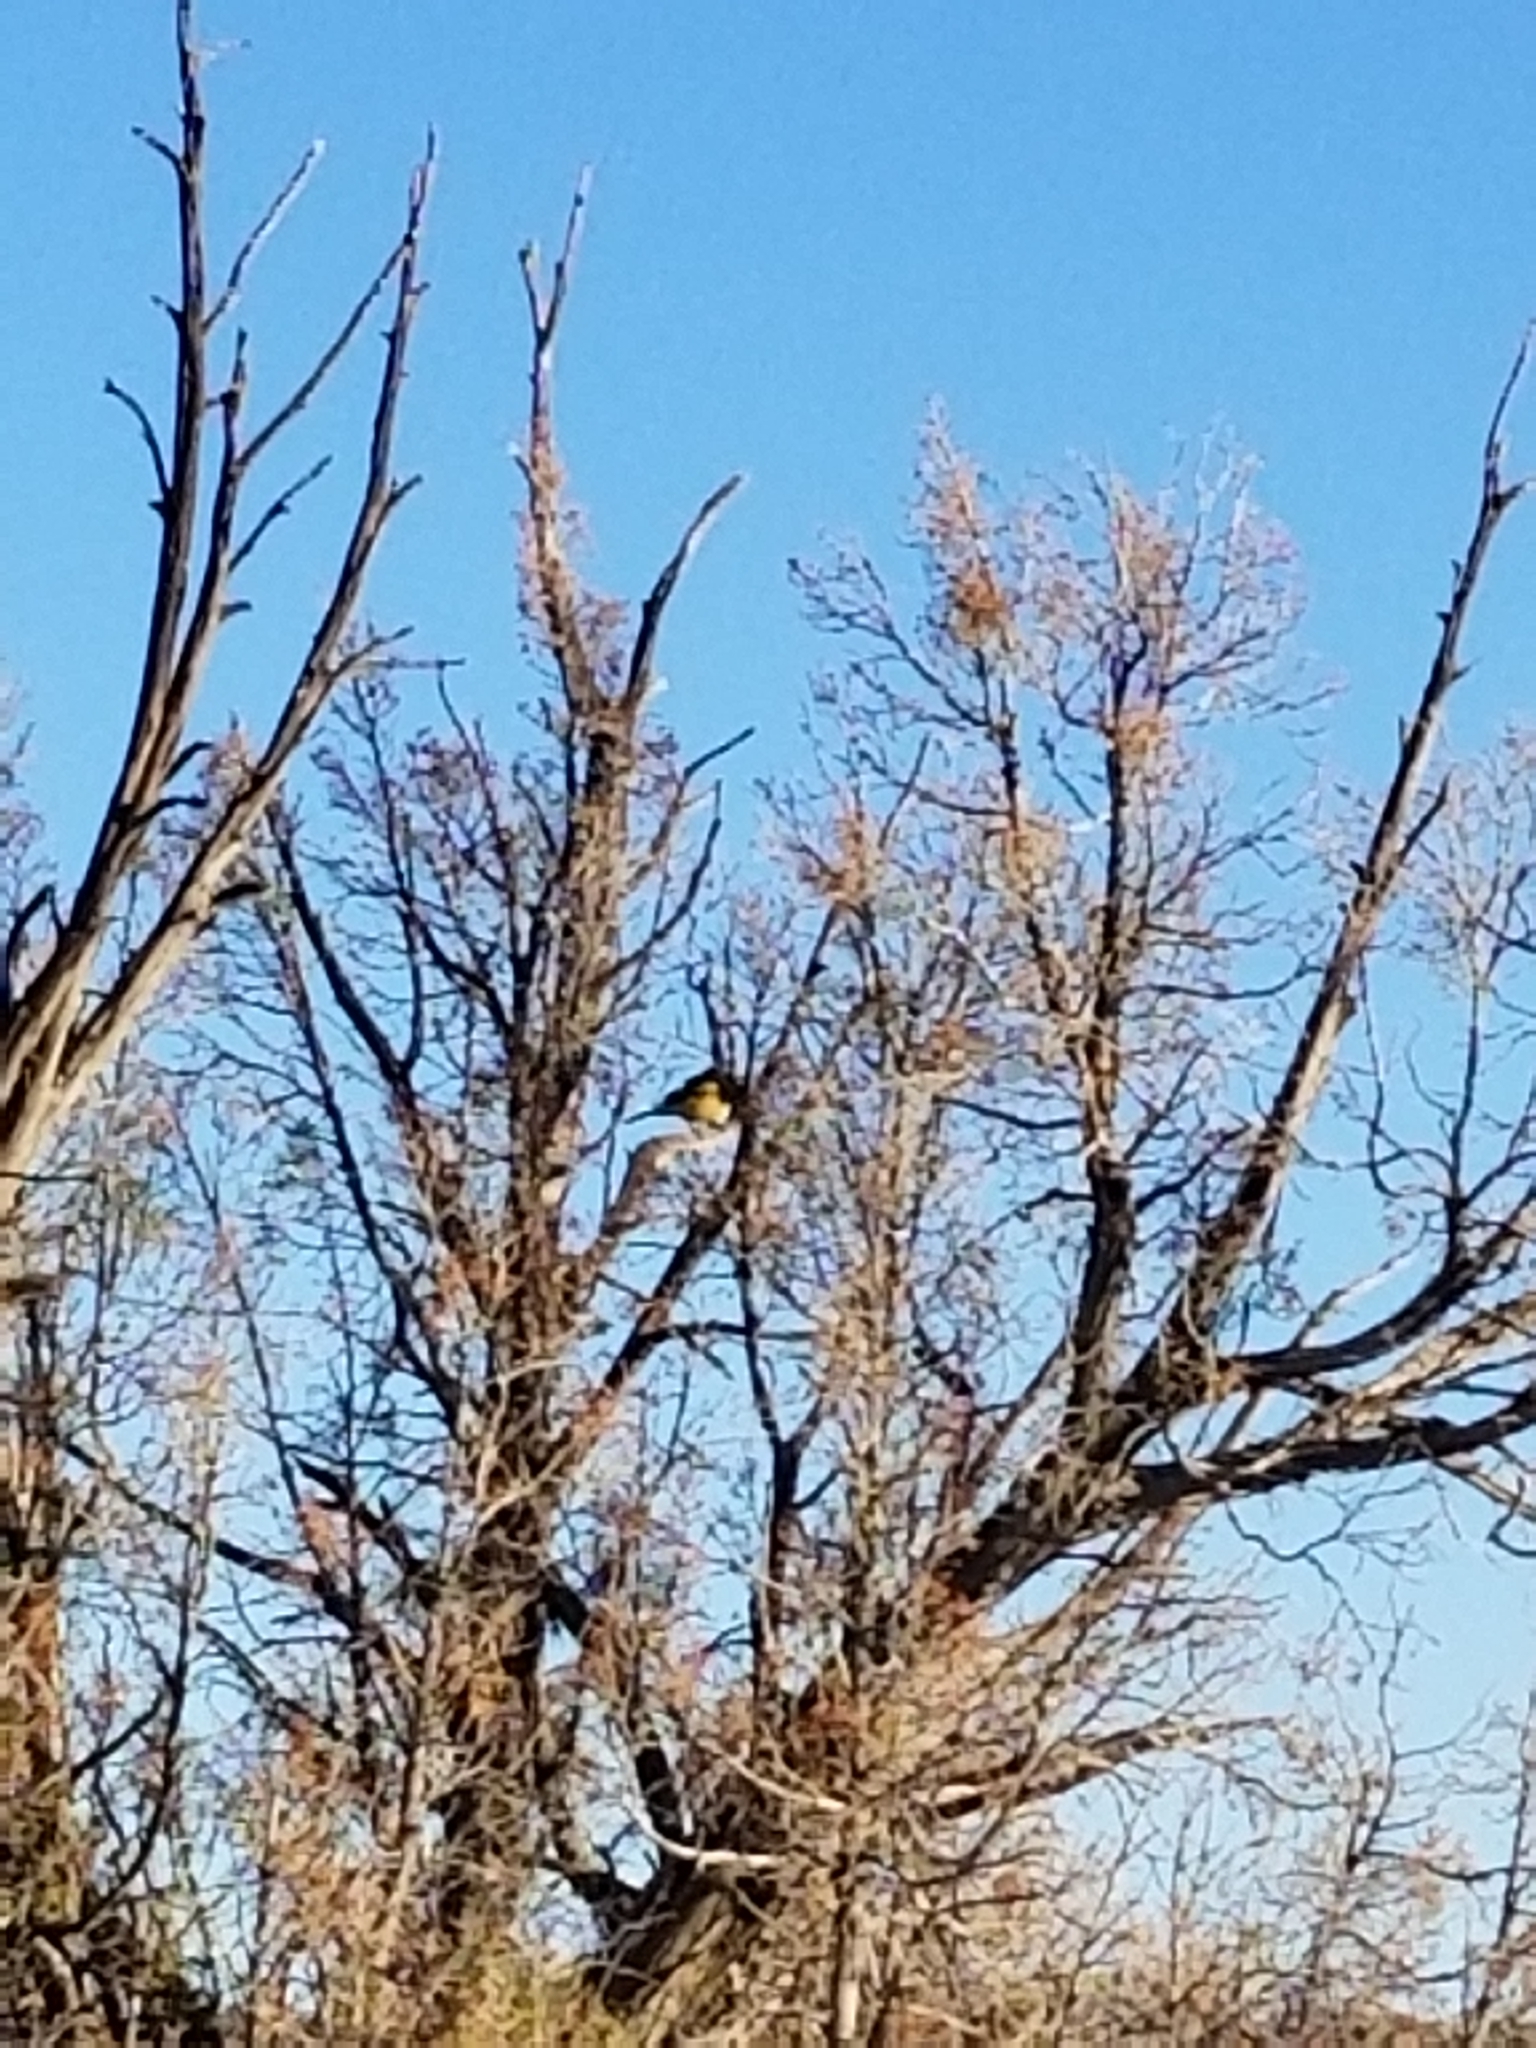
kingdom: Animalia
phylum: Chordata
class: Aves
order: Passeriformes
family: Icteridae
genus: Icterus
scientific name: Icterus parisorum
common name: Scott's oriole
